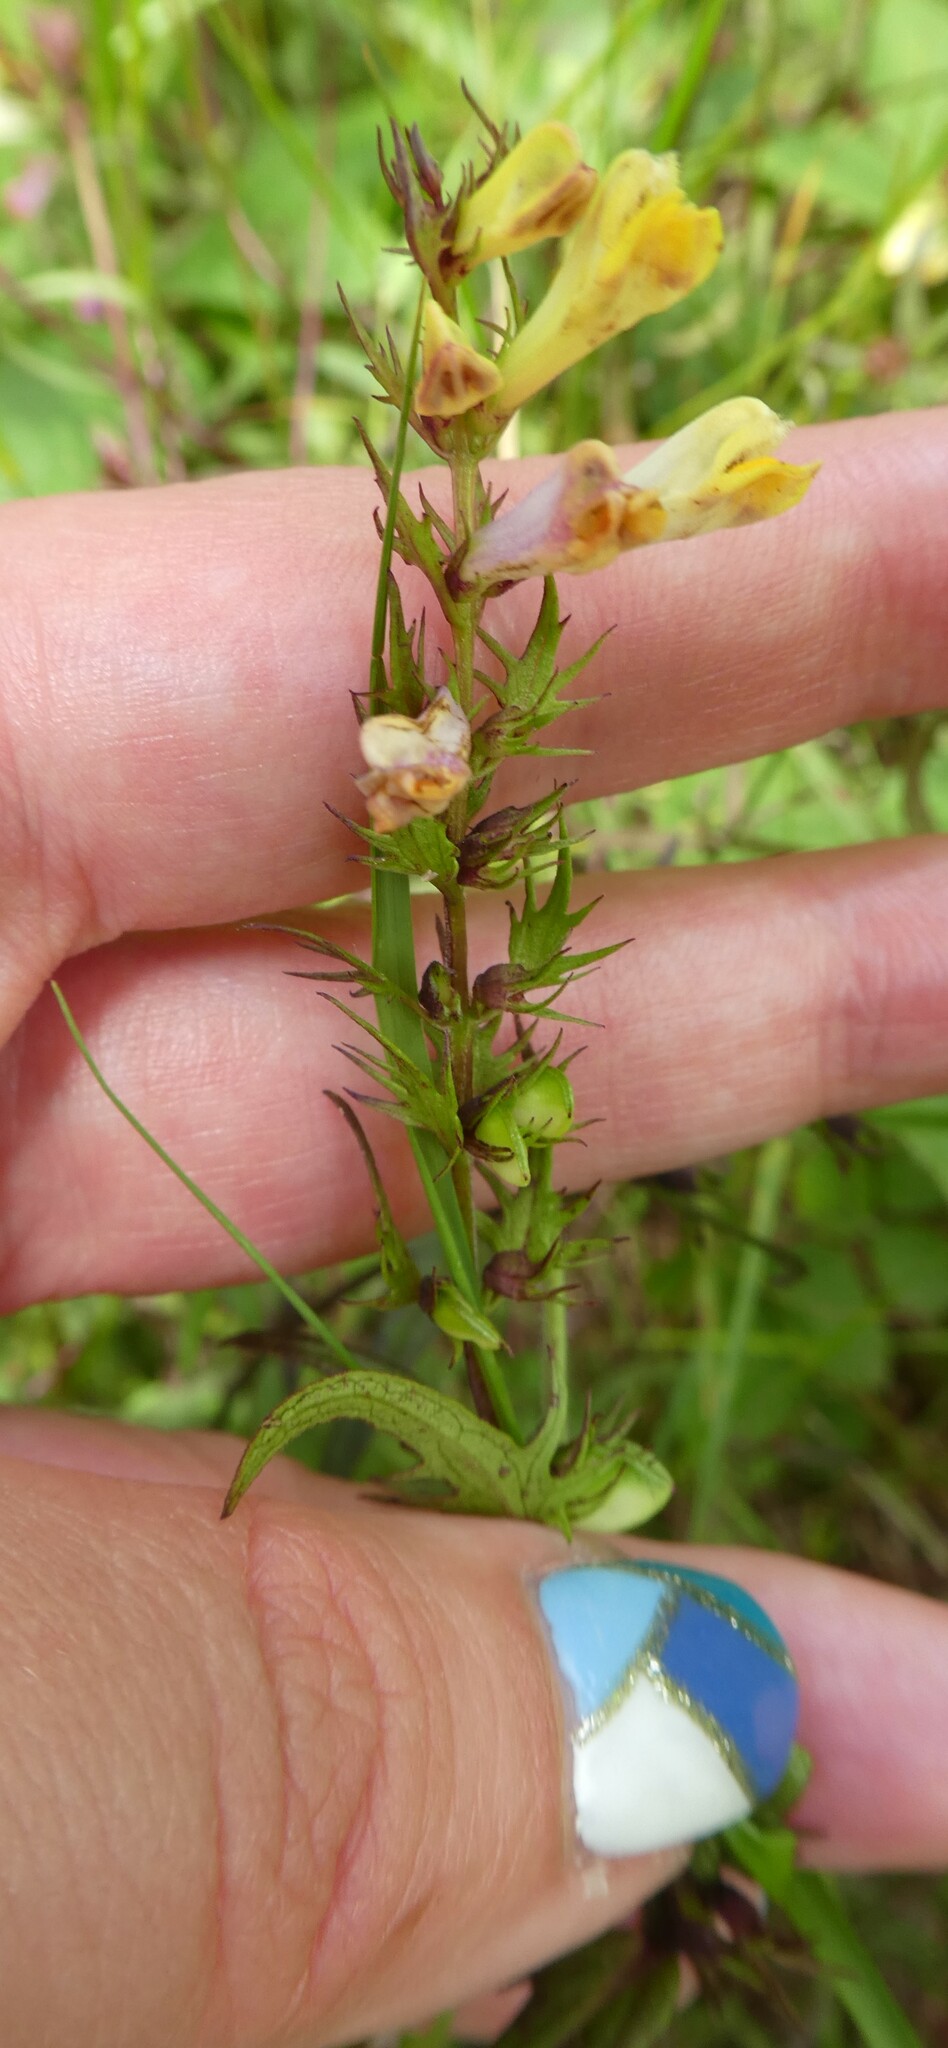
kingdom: Plantae
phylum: Tracheophyta
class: Magnoliopsida
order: Lamiales
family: Orobanchaceae
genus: Melampyrum
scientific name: Melampyrum pratense
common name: Common cow-wheat
